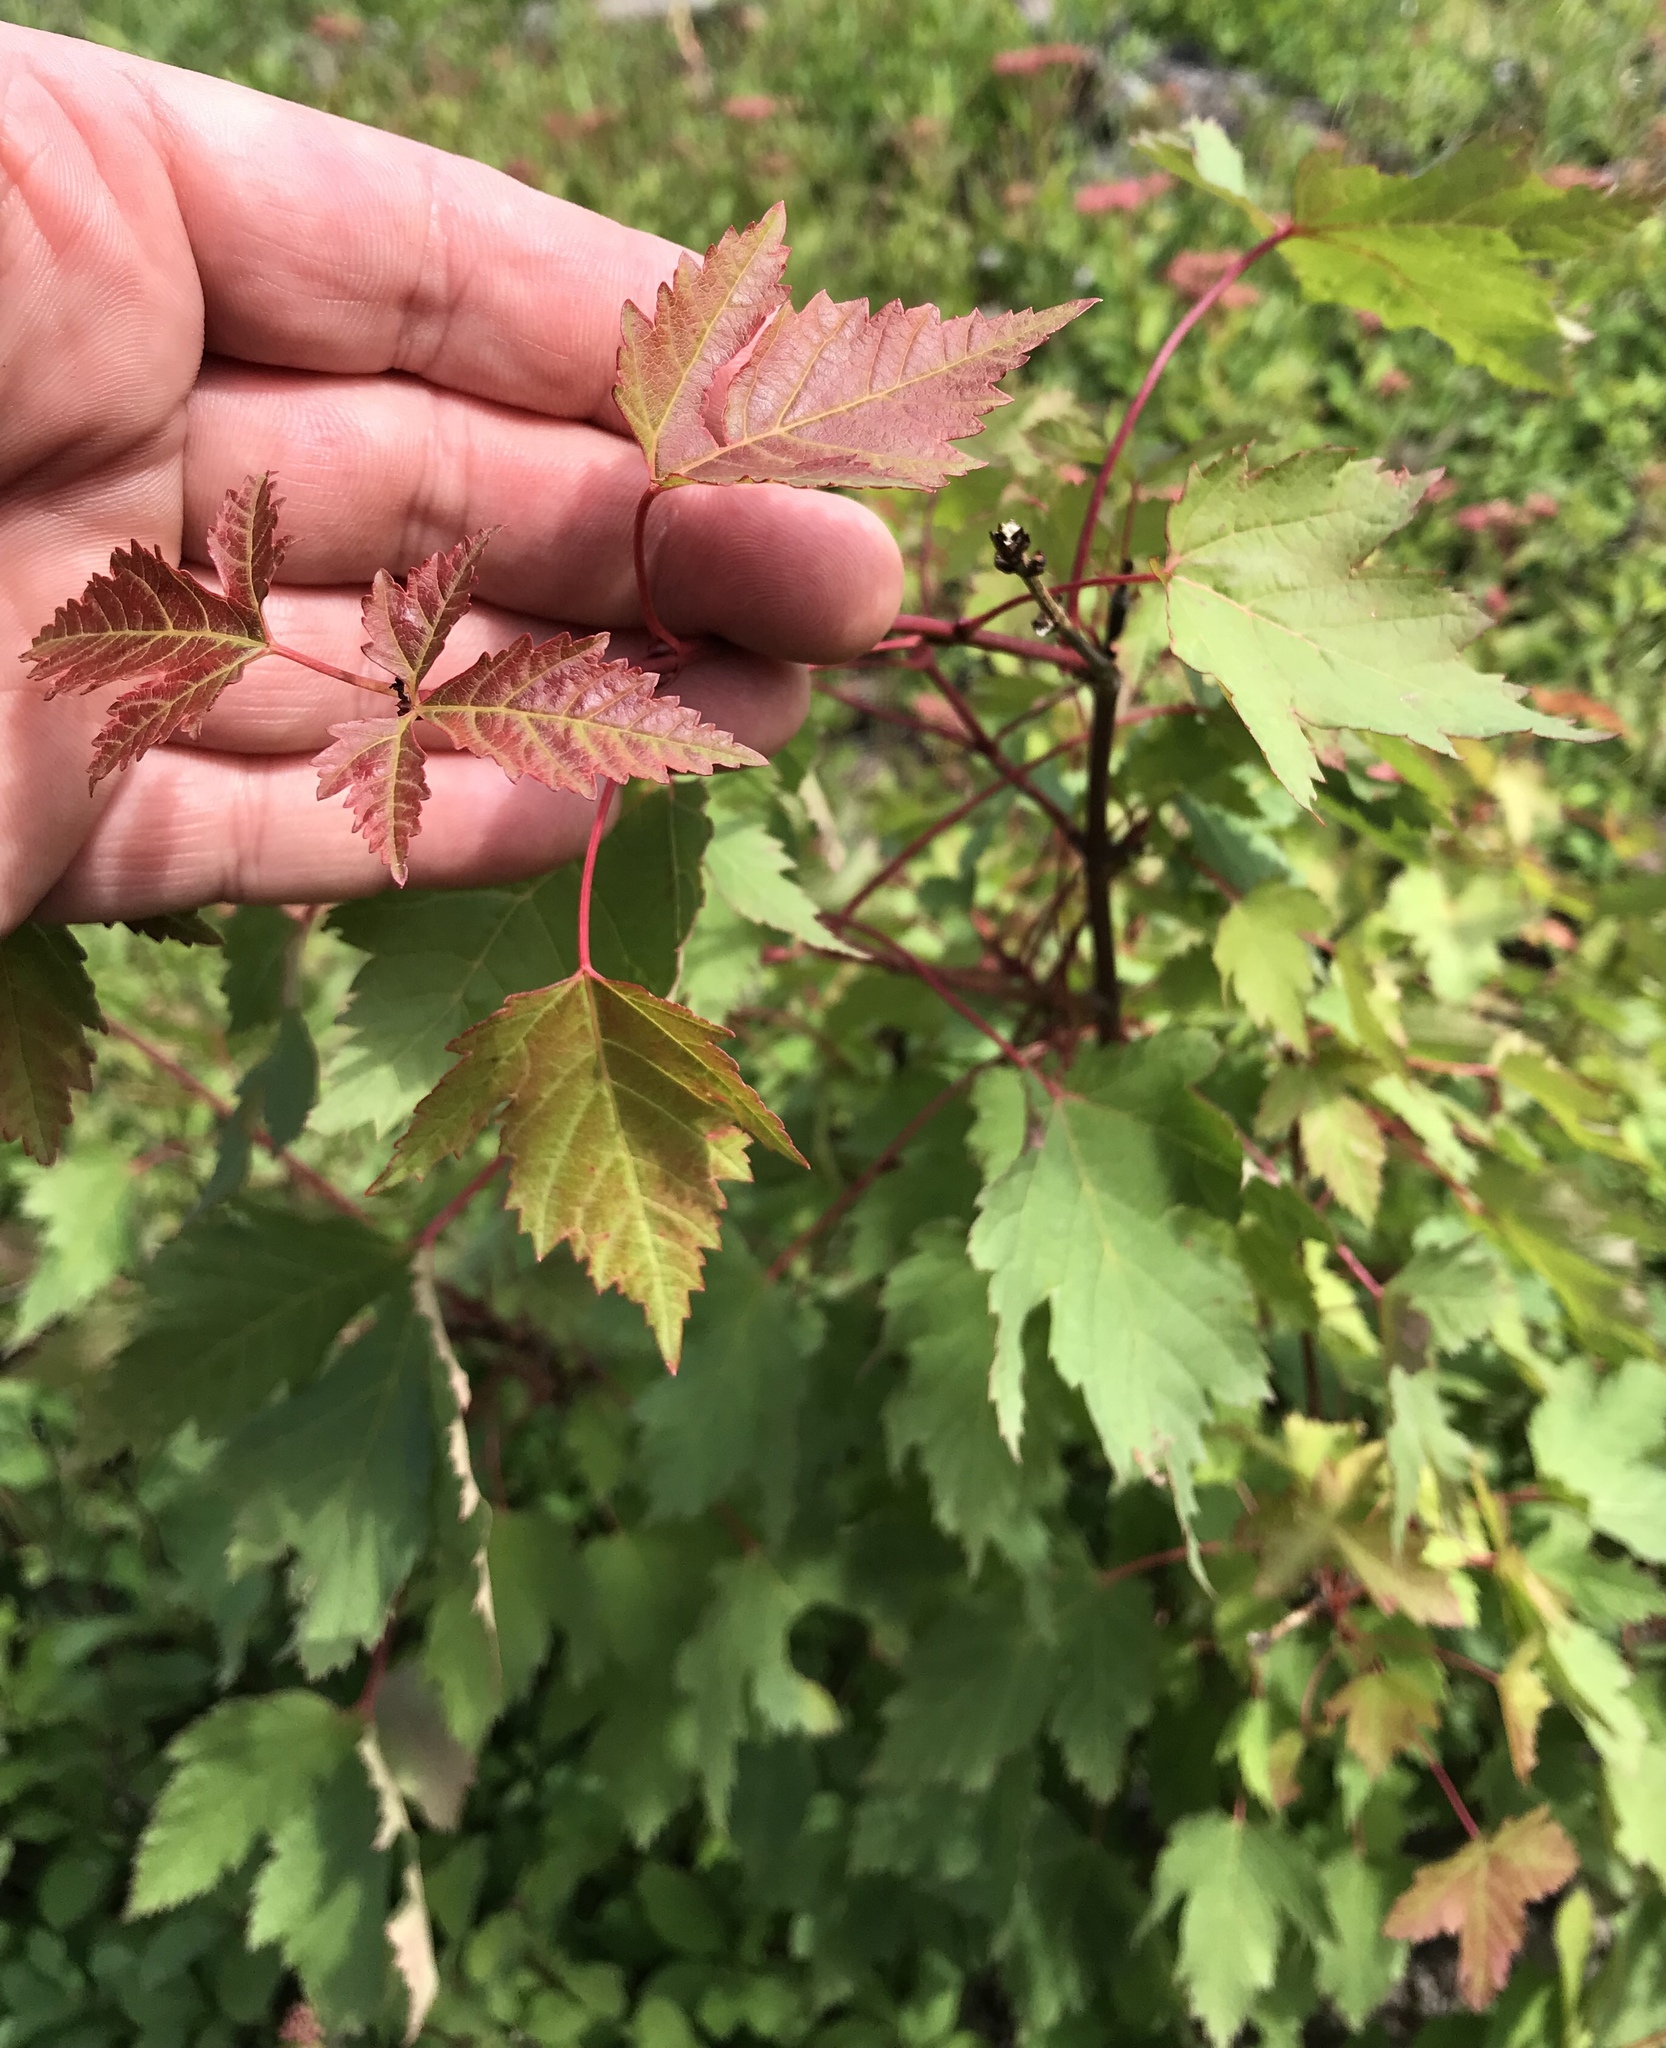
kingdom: Plantae
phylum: Tracheophyta
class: Magnoliopsida
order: Sapindales
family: Sapindaceae
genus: Acer
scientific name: Acer glabrum
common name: Rocky mountain maple
